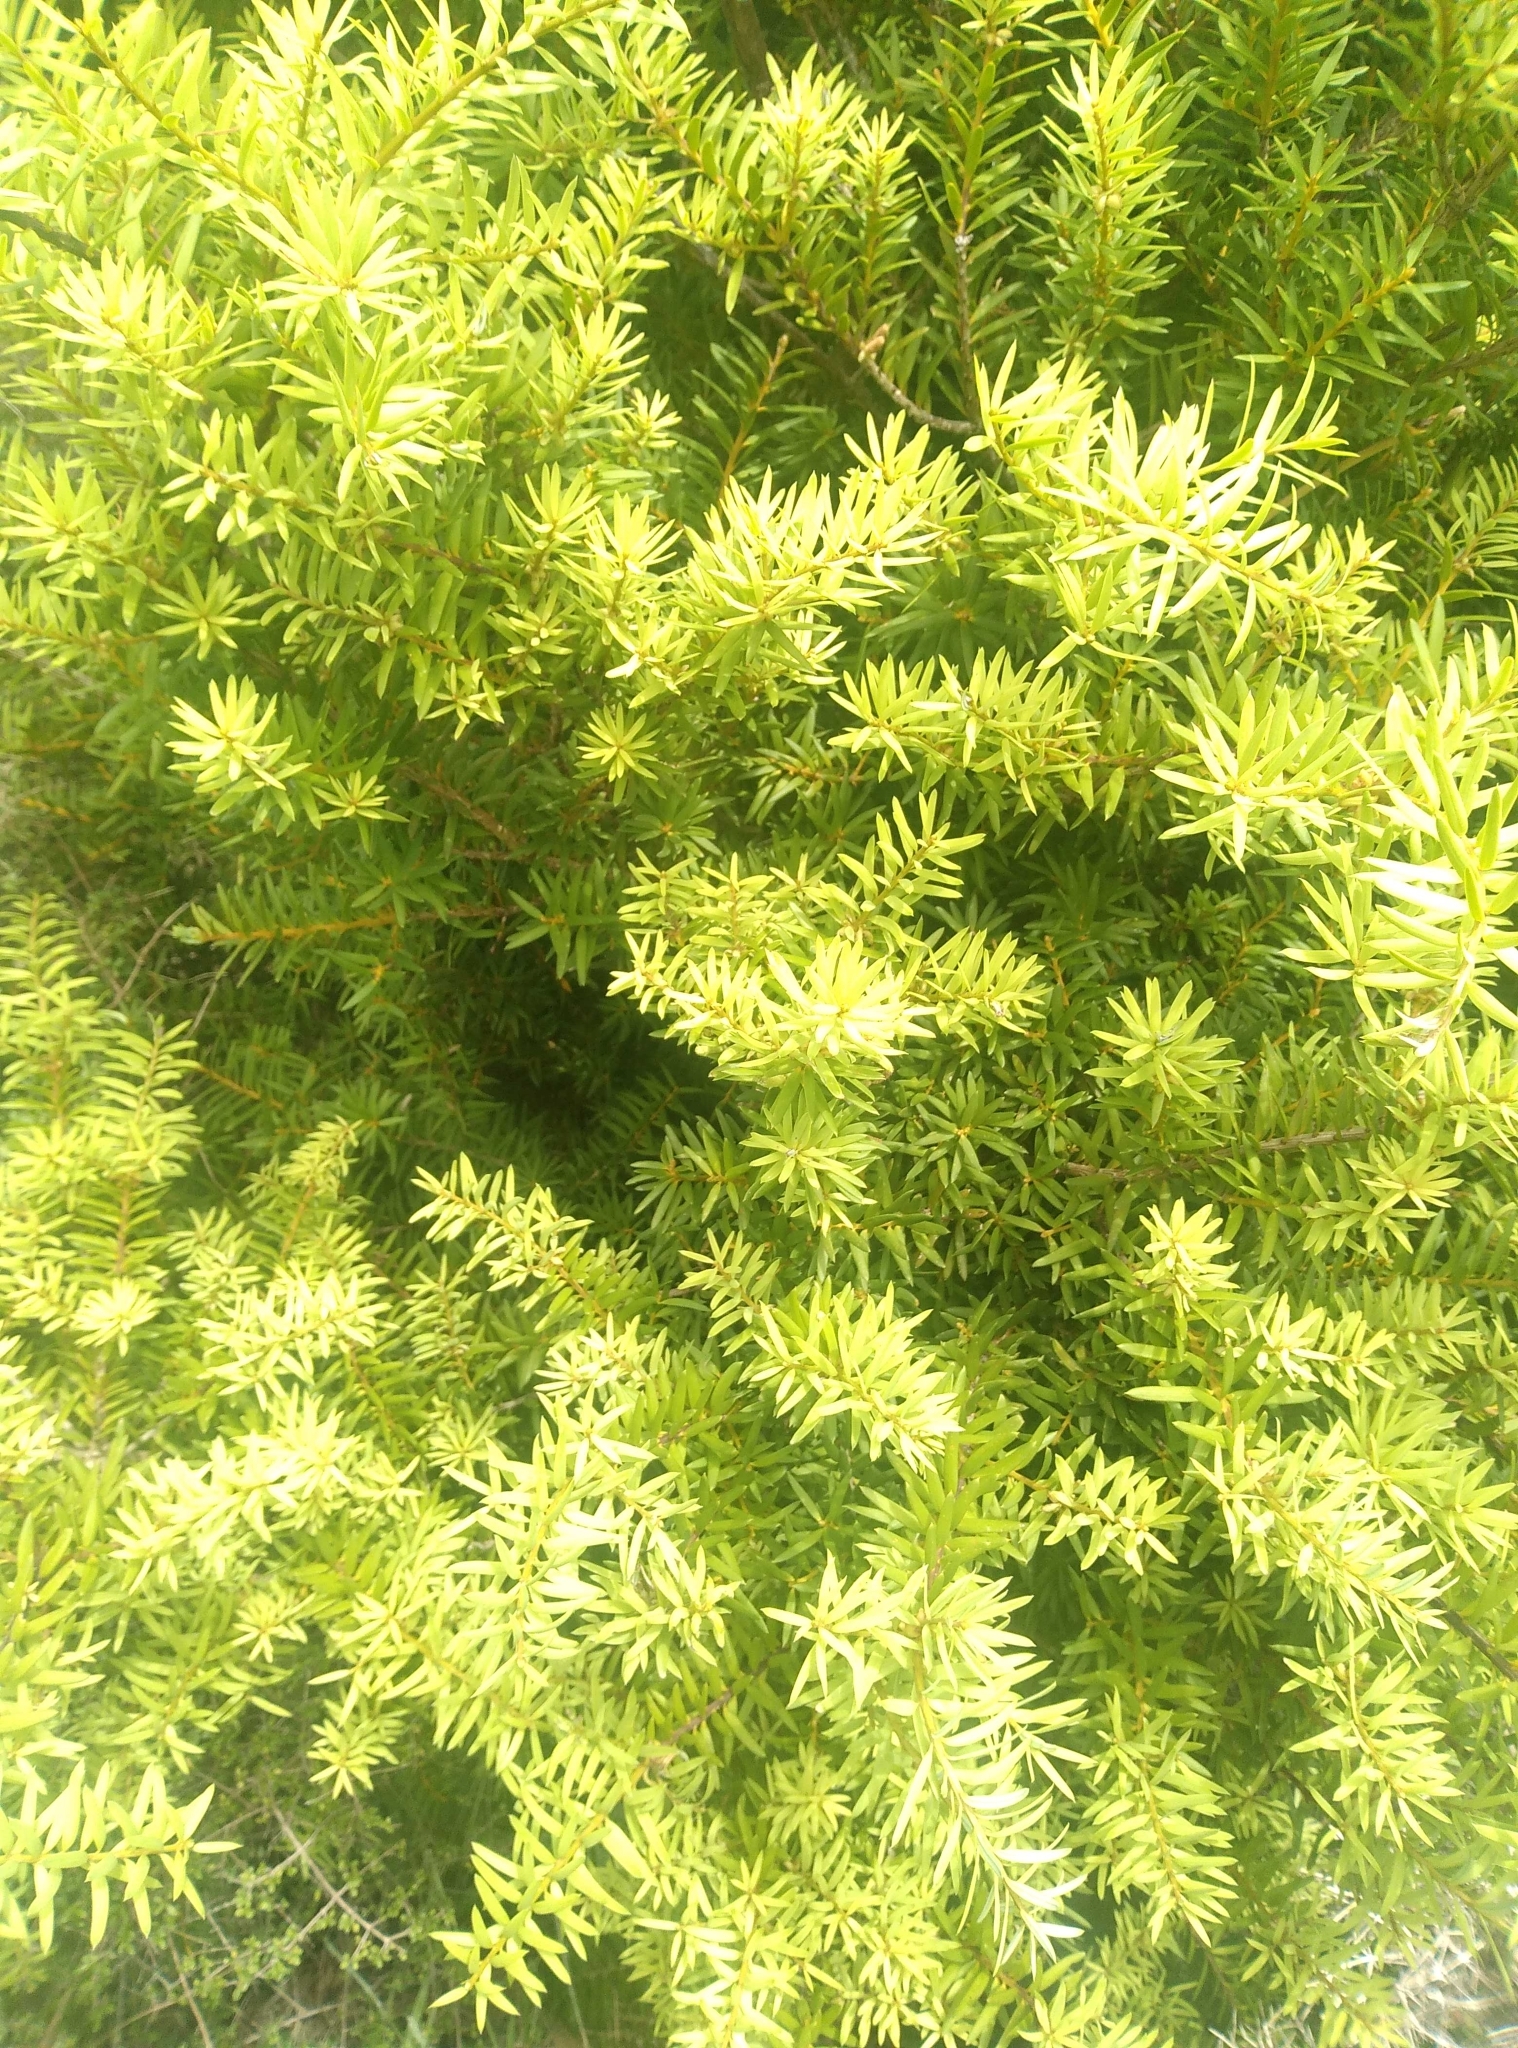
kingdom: Plantae
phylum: Tracheophyta
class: Pinopsida
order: Pinales
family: Podocarpaceae
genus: Podocarpus
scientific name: Podocarpus laetus
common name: Hall's totara
